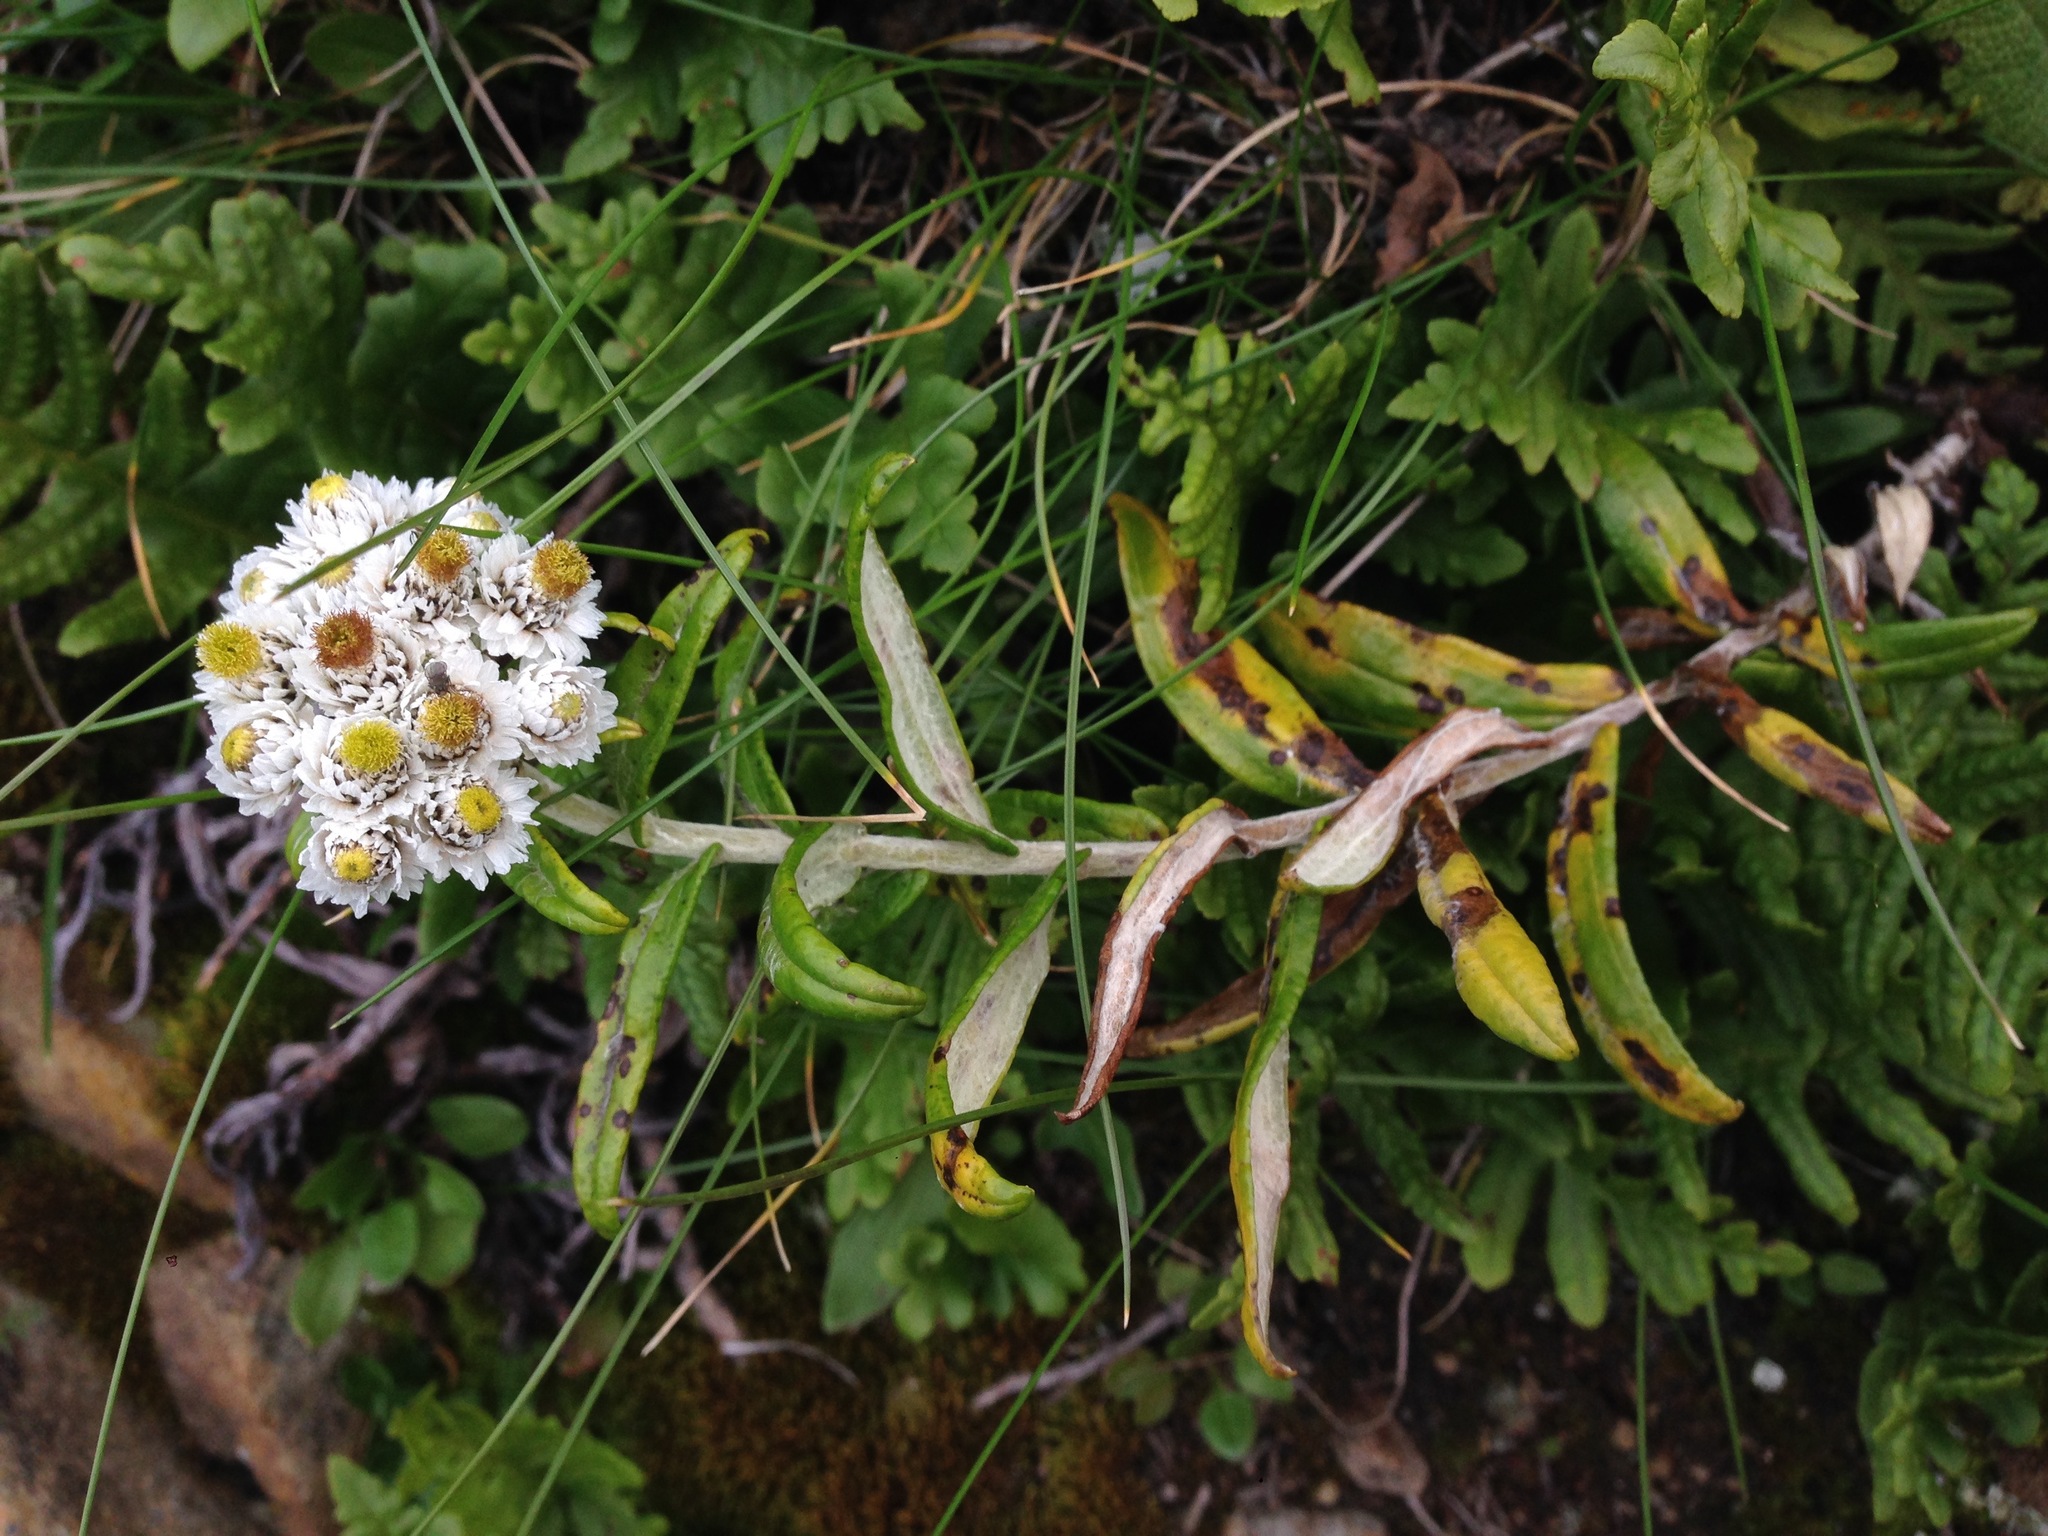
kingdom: Plantae
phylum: Tracheophyta
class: Magnoliopsida
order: Asterales
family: Asteraceae
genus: Anaphalis
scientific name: Anaphalis margaritacea
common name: Pearly everlasting
